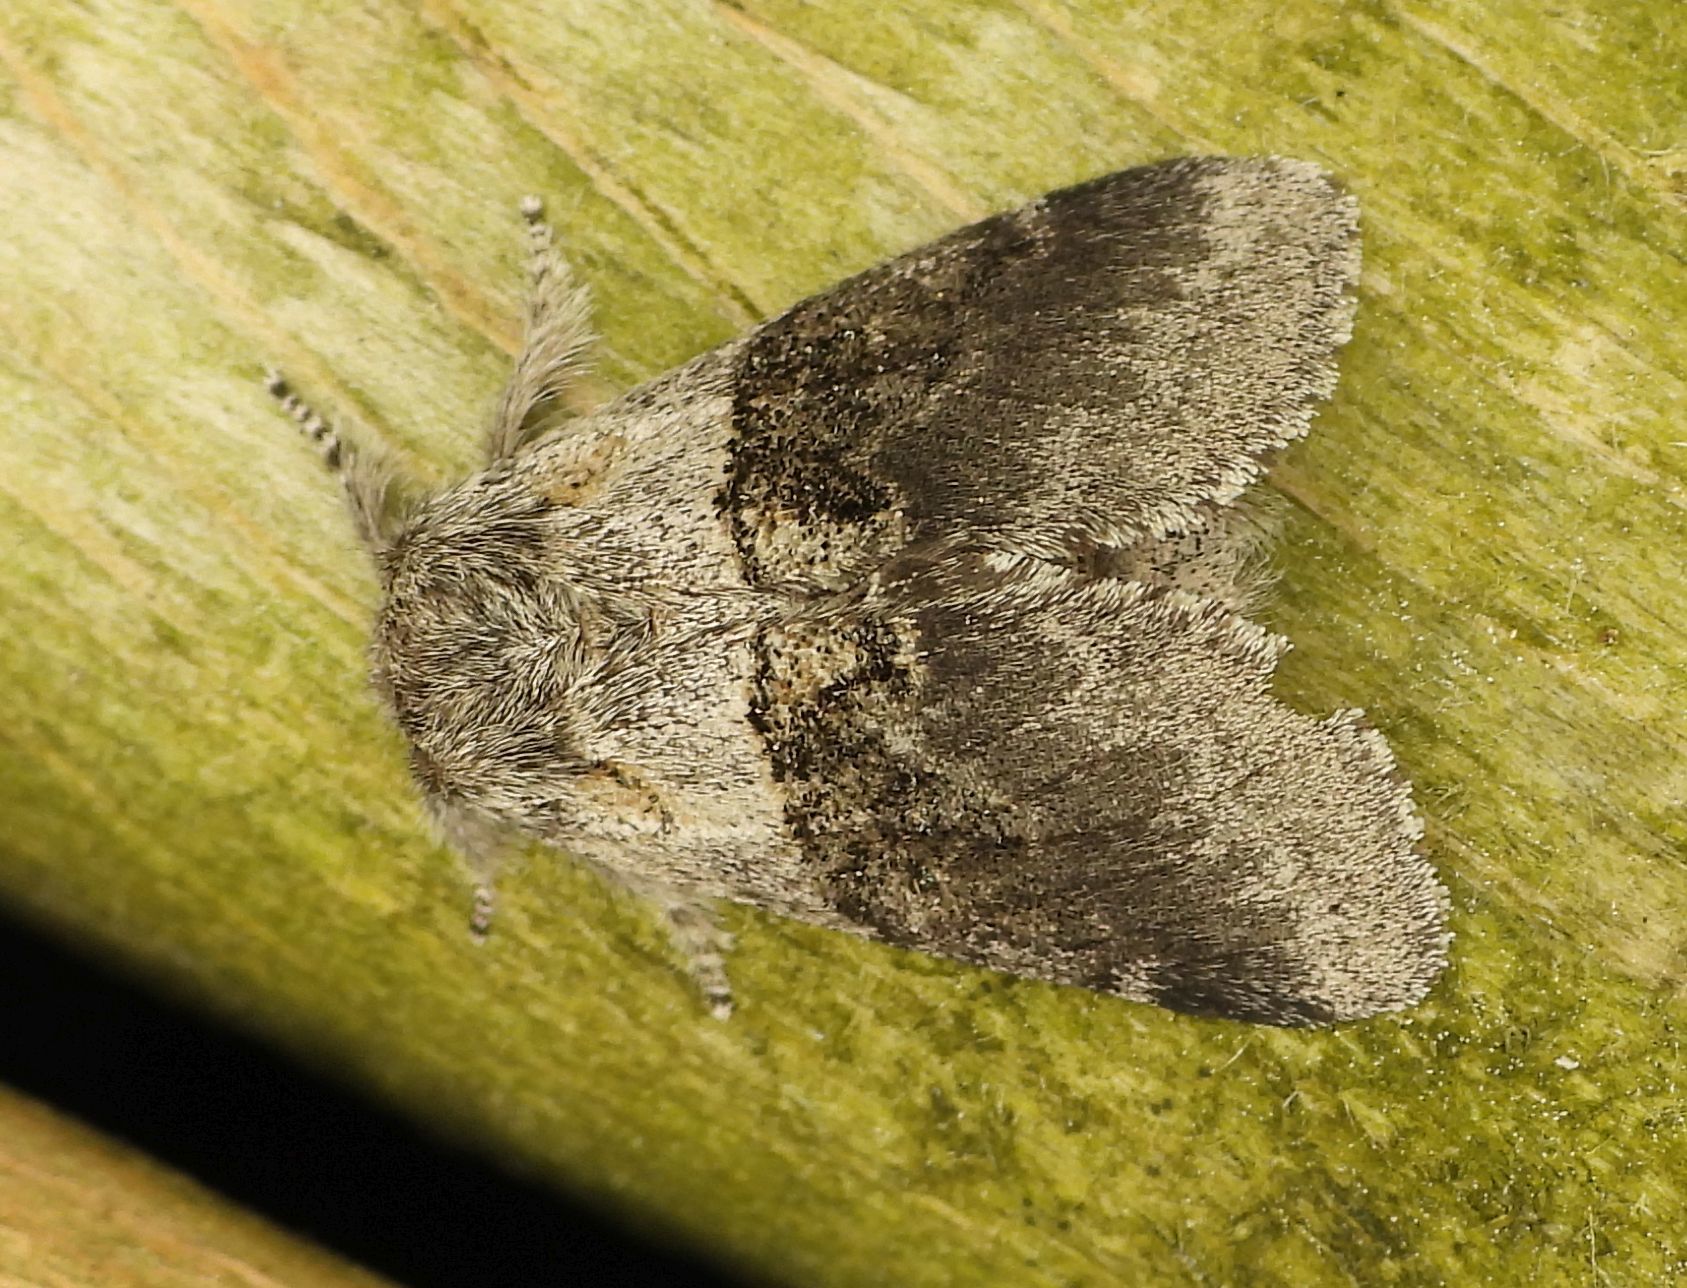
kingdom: Animalia
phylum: Arthropoda
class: Insecta
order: Lepidoptera
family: Notodontidae
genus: Gluphisia
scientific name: Gluphisia septentrionis
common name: Common gluphisia
